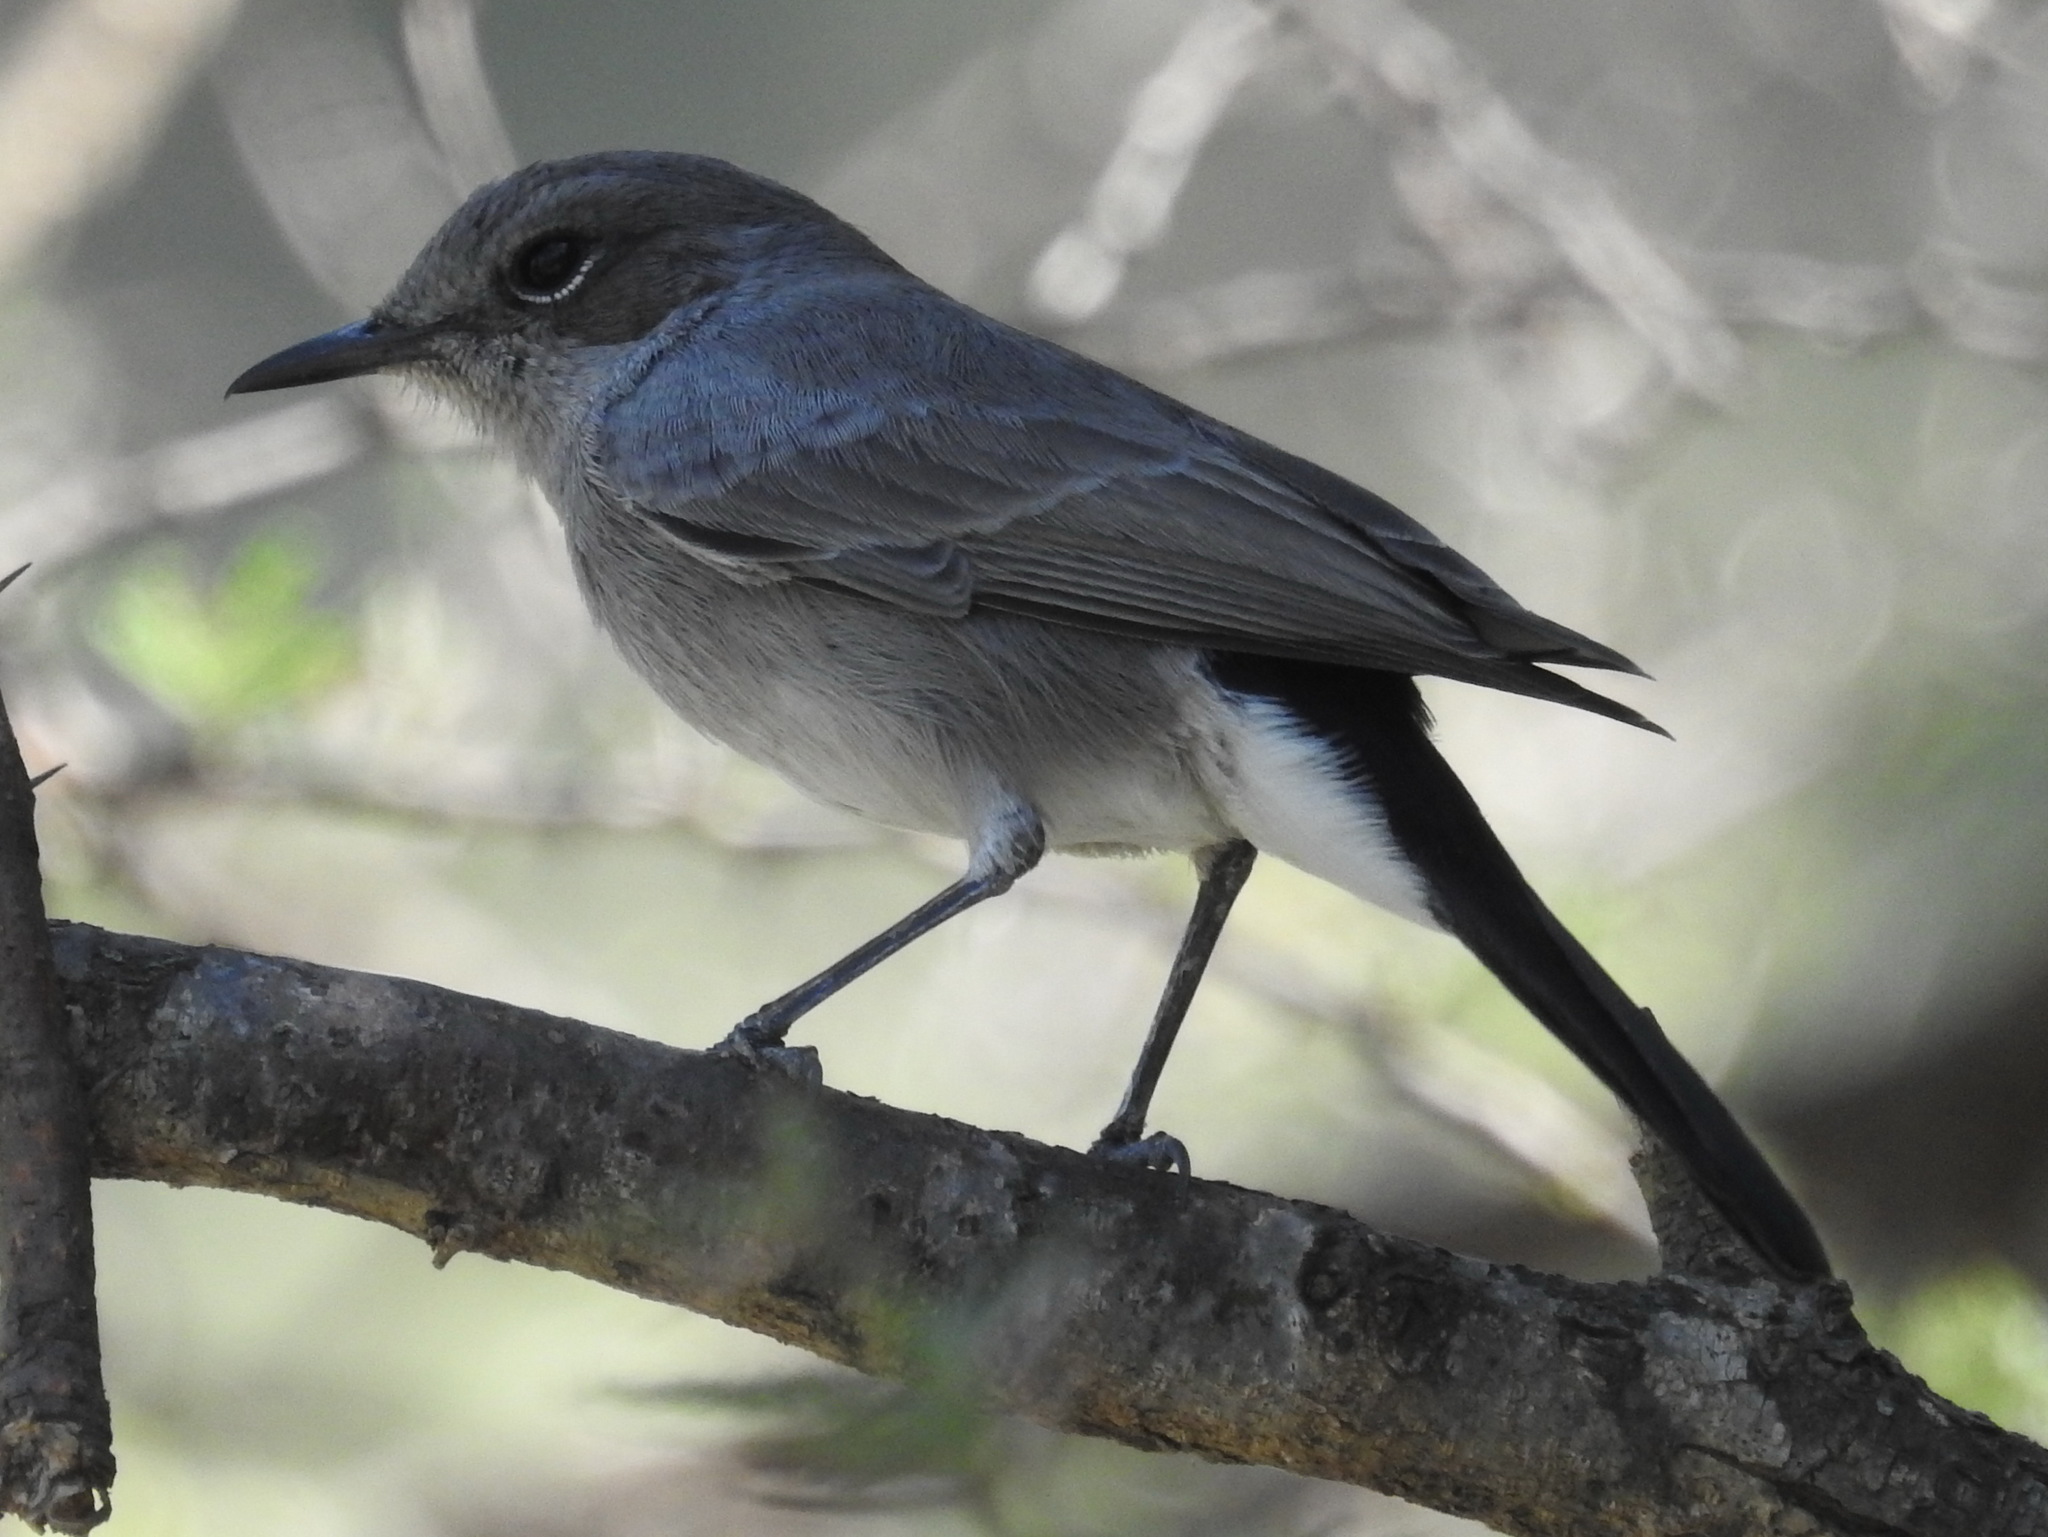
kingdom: Animalia
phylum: Chordata
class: Aves
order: Passeriformes
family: Muscicapidae
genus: Oenanthe
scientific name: Oenanthe melanura
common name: Blackstart
